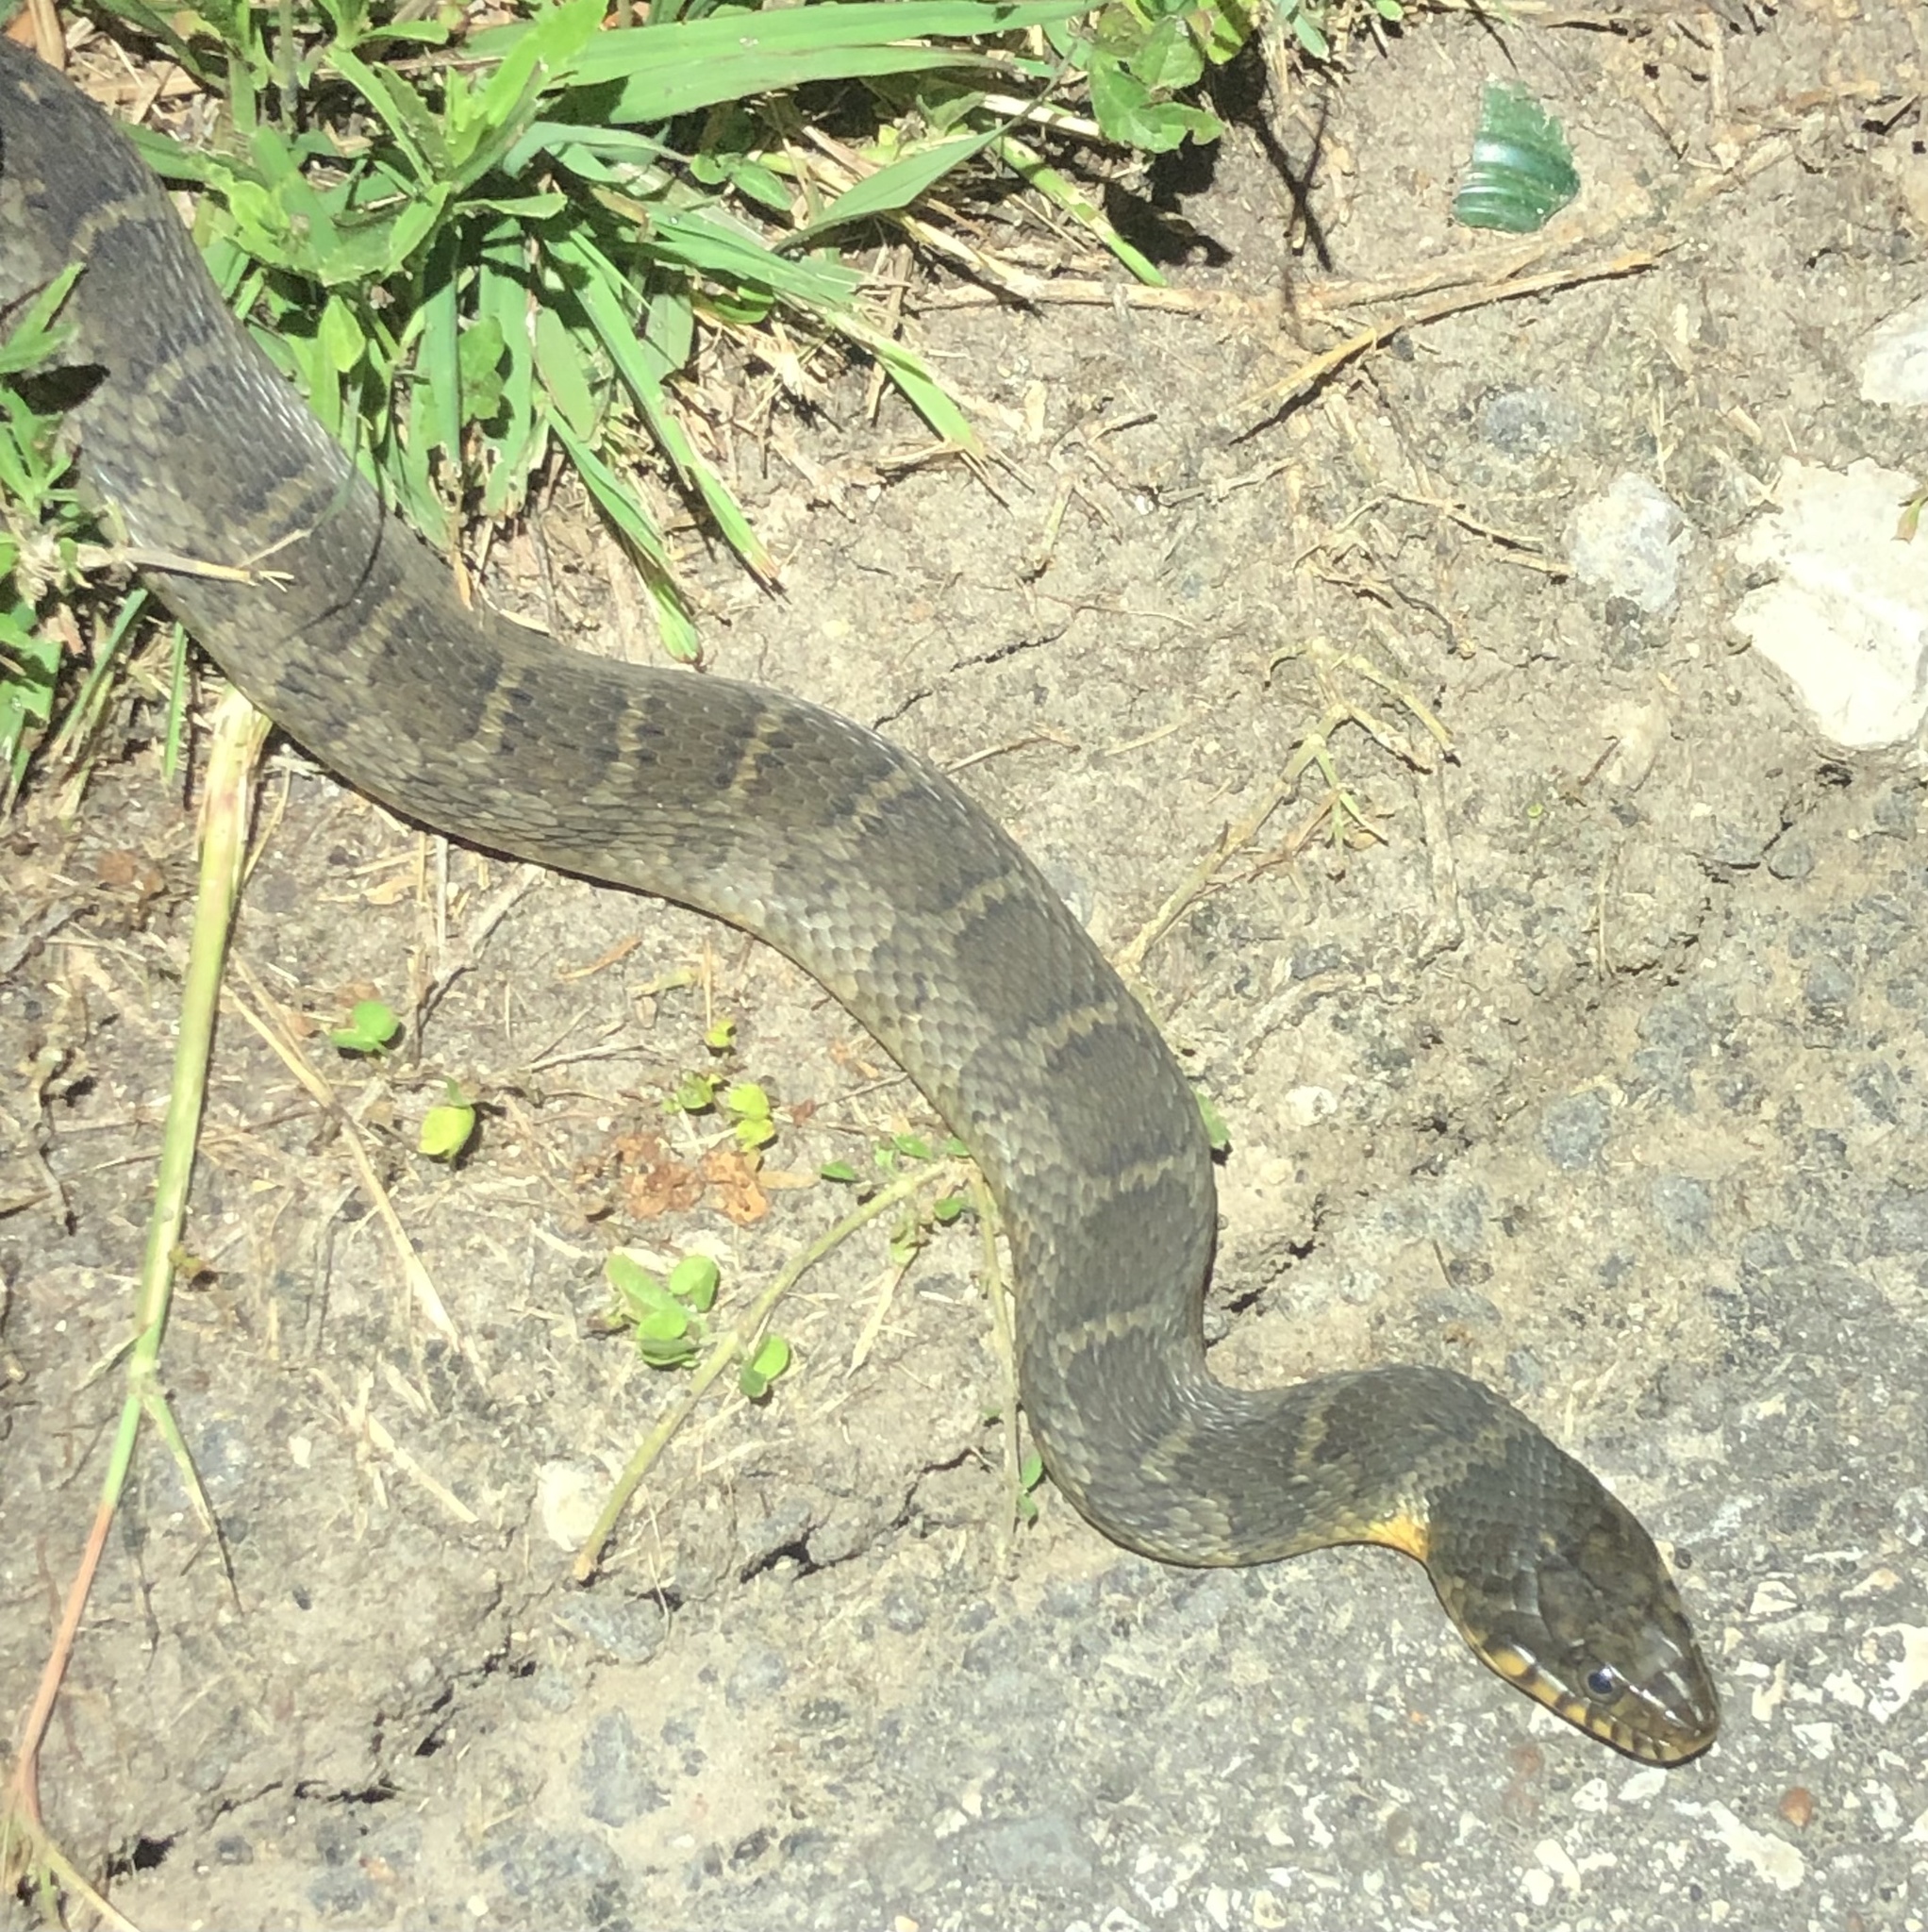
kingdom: Animalia
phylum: Chordata
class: Squamata
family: Colubridae
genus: Nerodia
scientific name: Nerodia erythrogaster
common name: Plainbelly water snake
